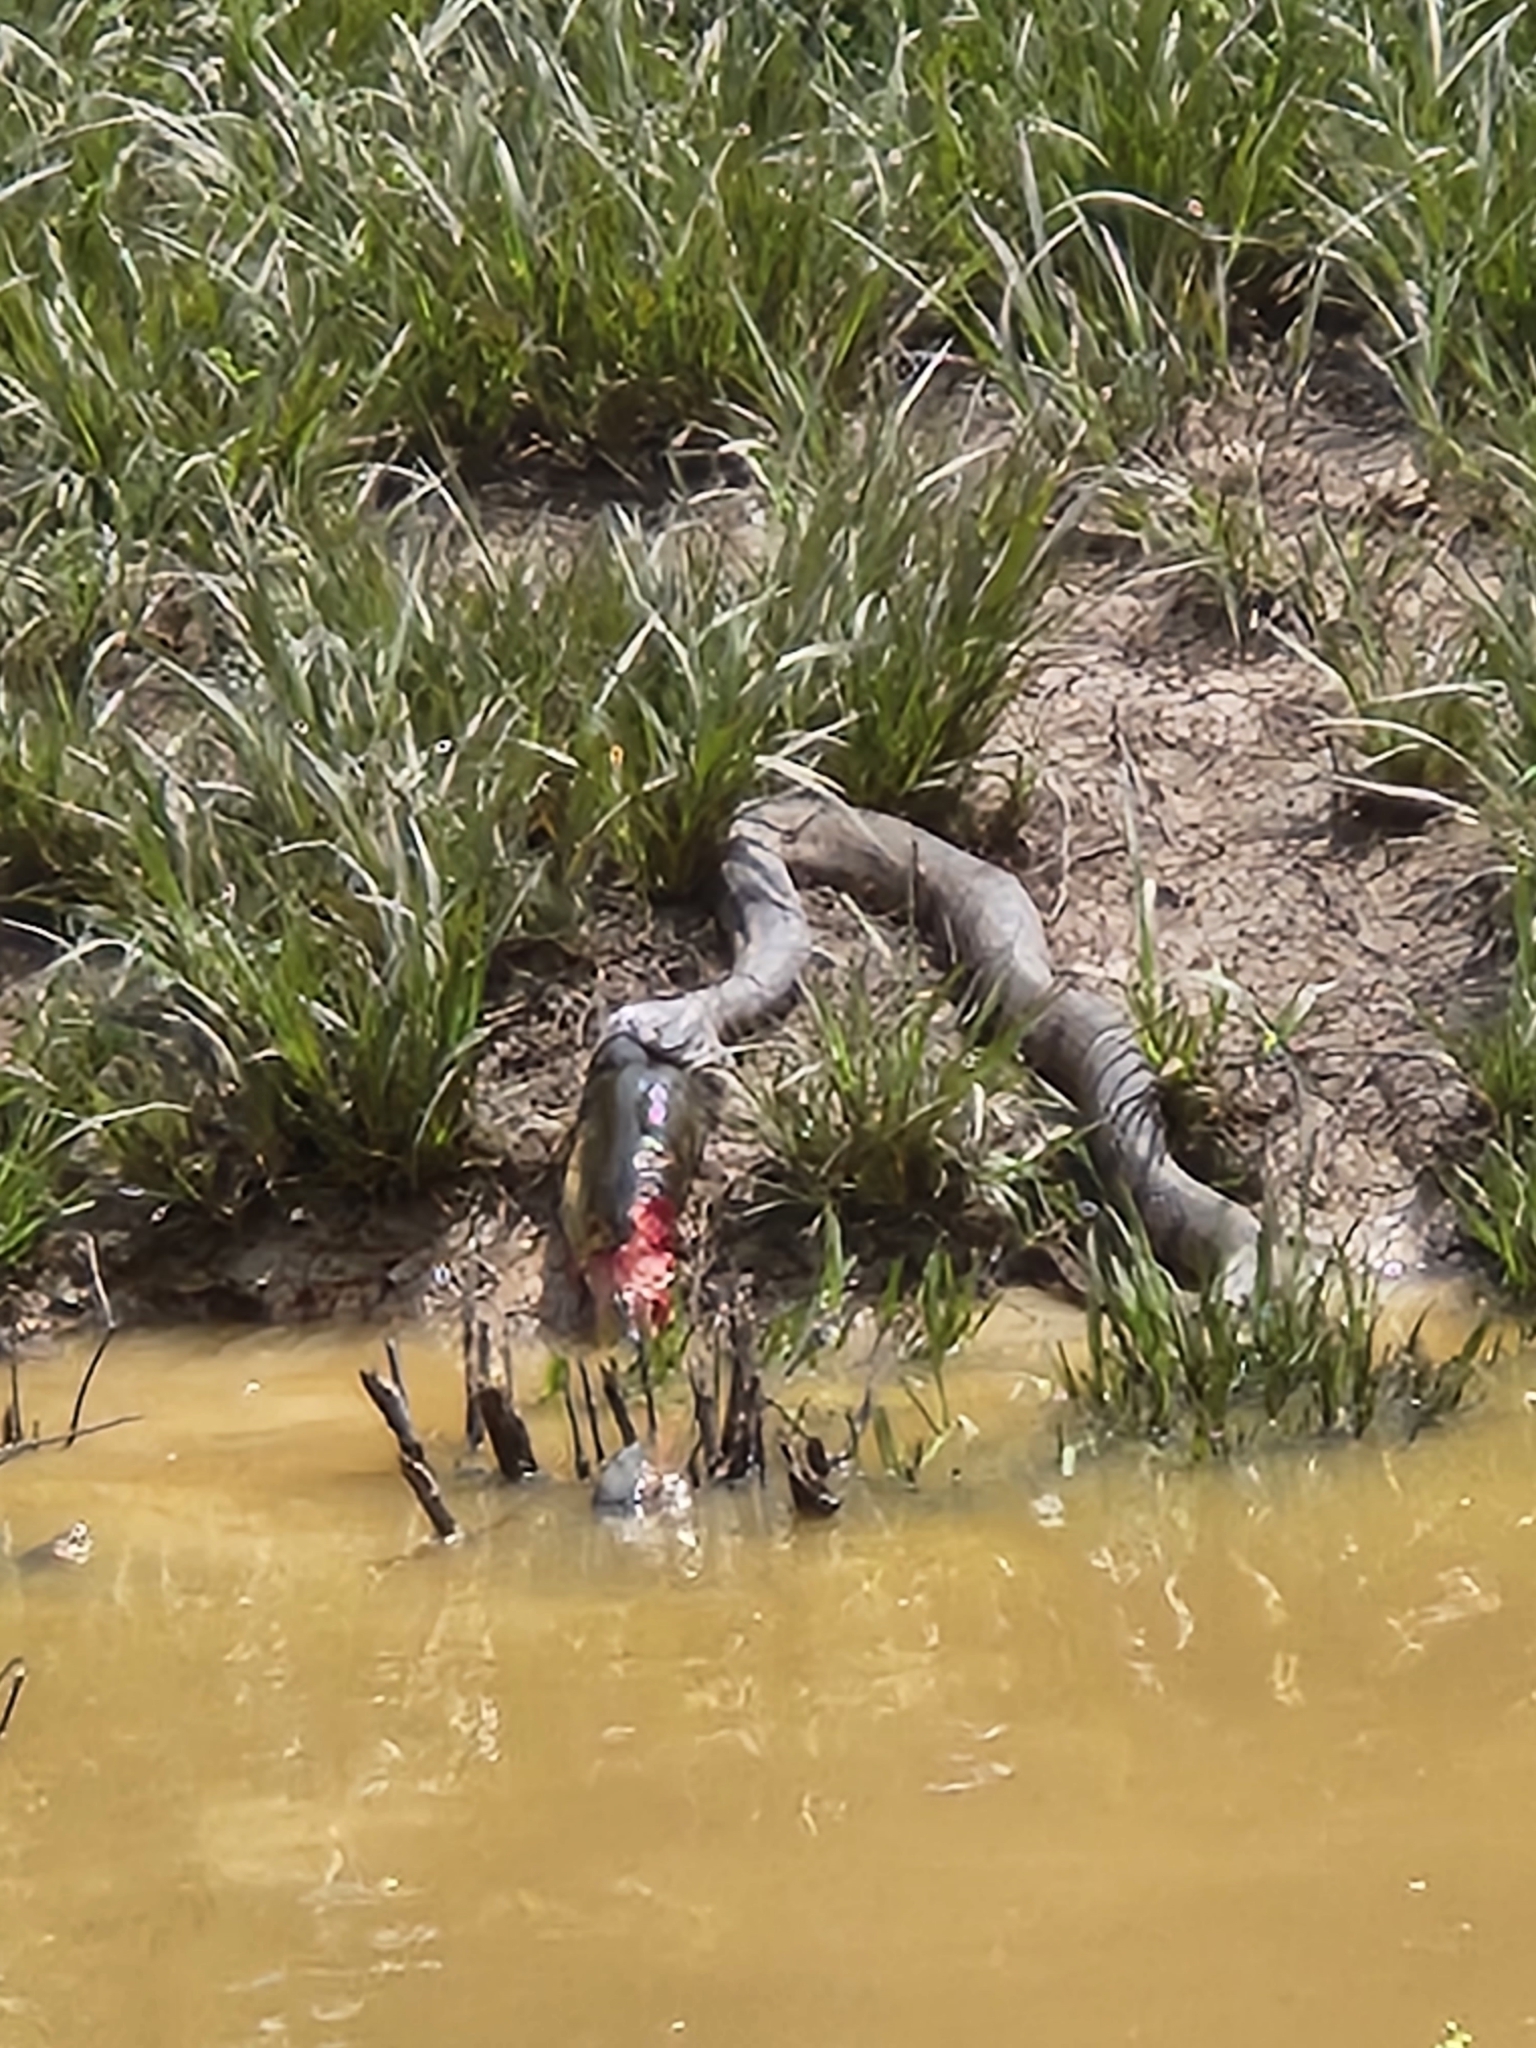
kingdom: Animalia
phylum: Chordata
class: Squamata
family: Colubridae
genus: Nerodia
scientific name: Nerodia rhombifer
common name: Diamondback water snake
